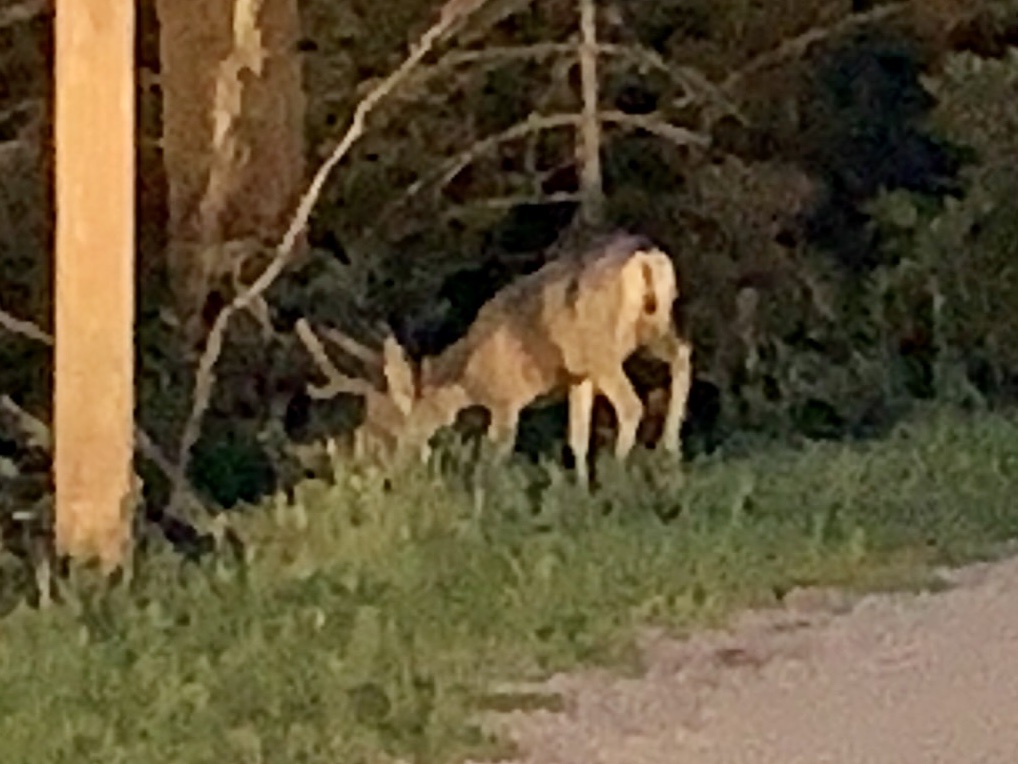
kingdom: Animalia
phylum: Chordata
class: Mammalia
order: Artiodactyla
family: Cervidae
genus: Odocoileus
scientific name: Odocoileus hemionus
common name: Mule deer
